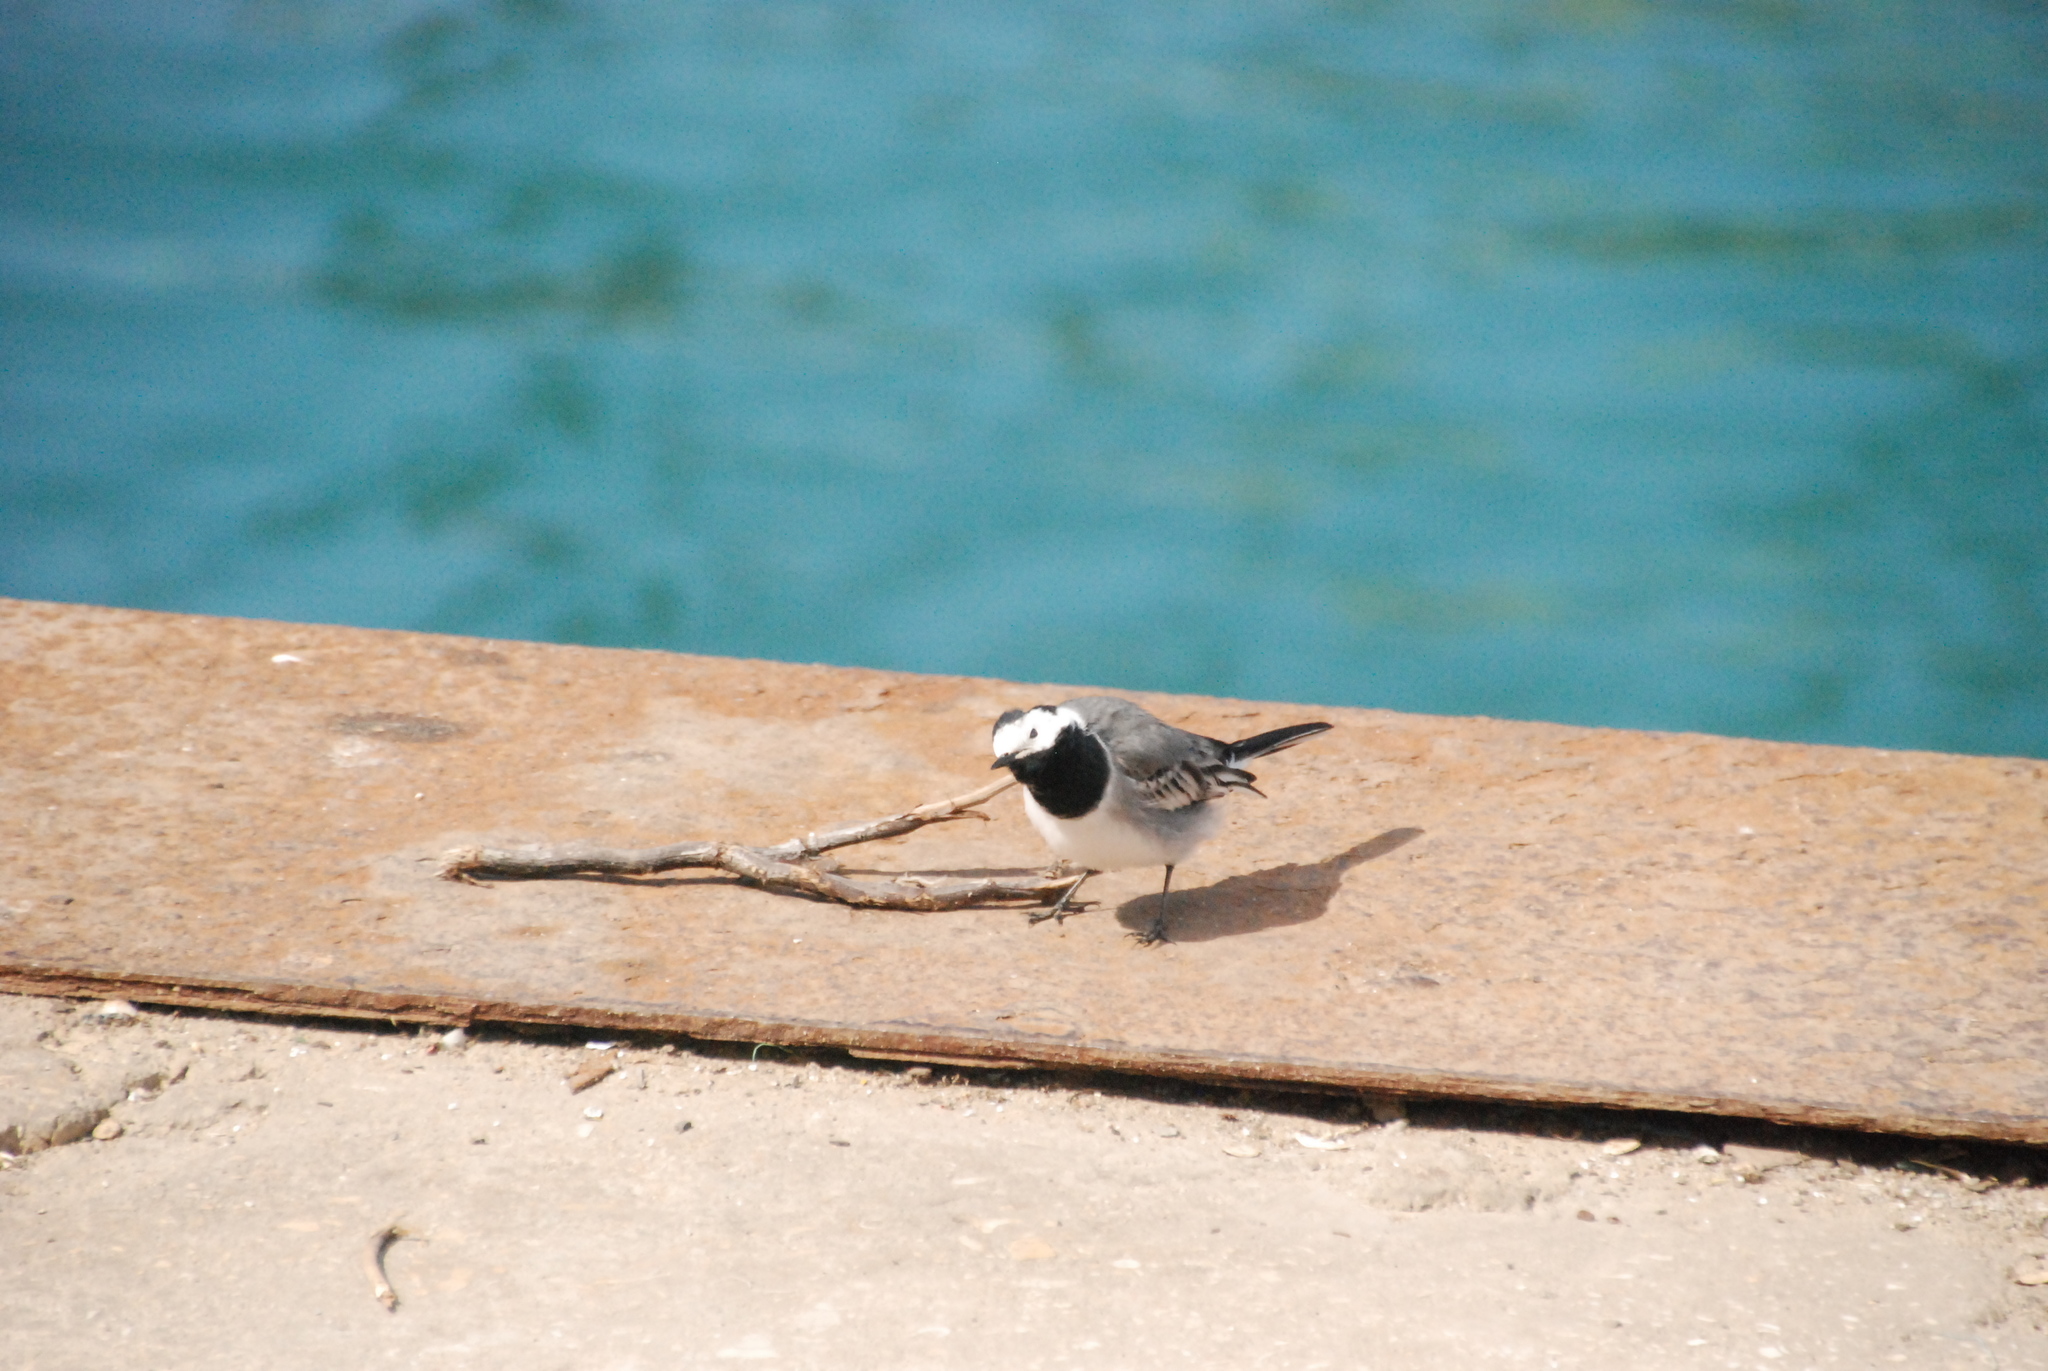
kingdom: Animalia
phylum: Chordata
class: Aves
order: Passeriformes
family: Motacillidae
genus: Motacilla
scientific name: Motacilla alba
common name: White wagtail
